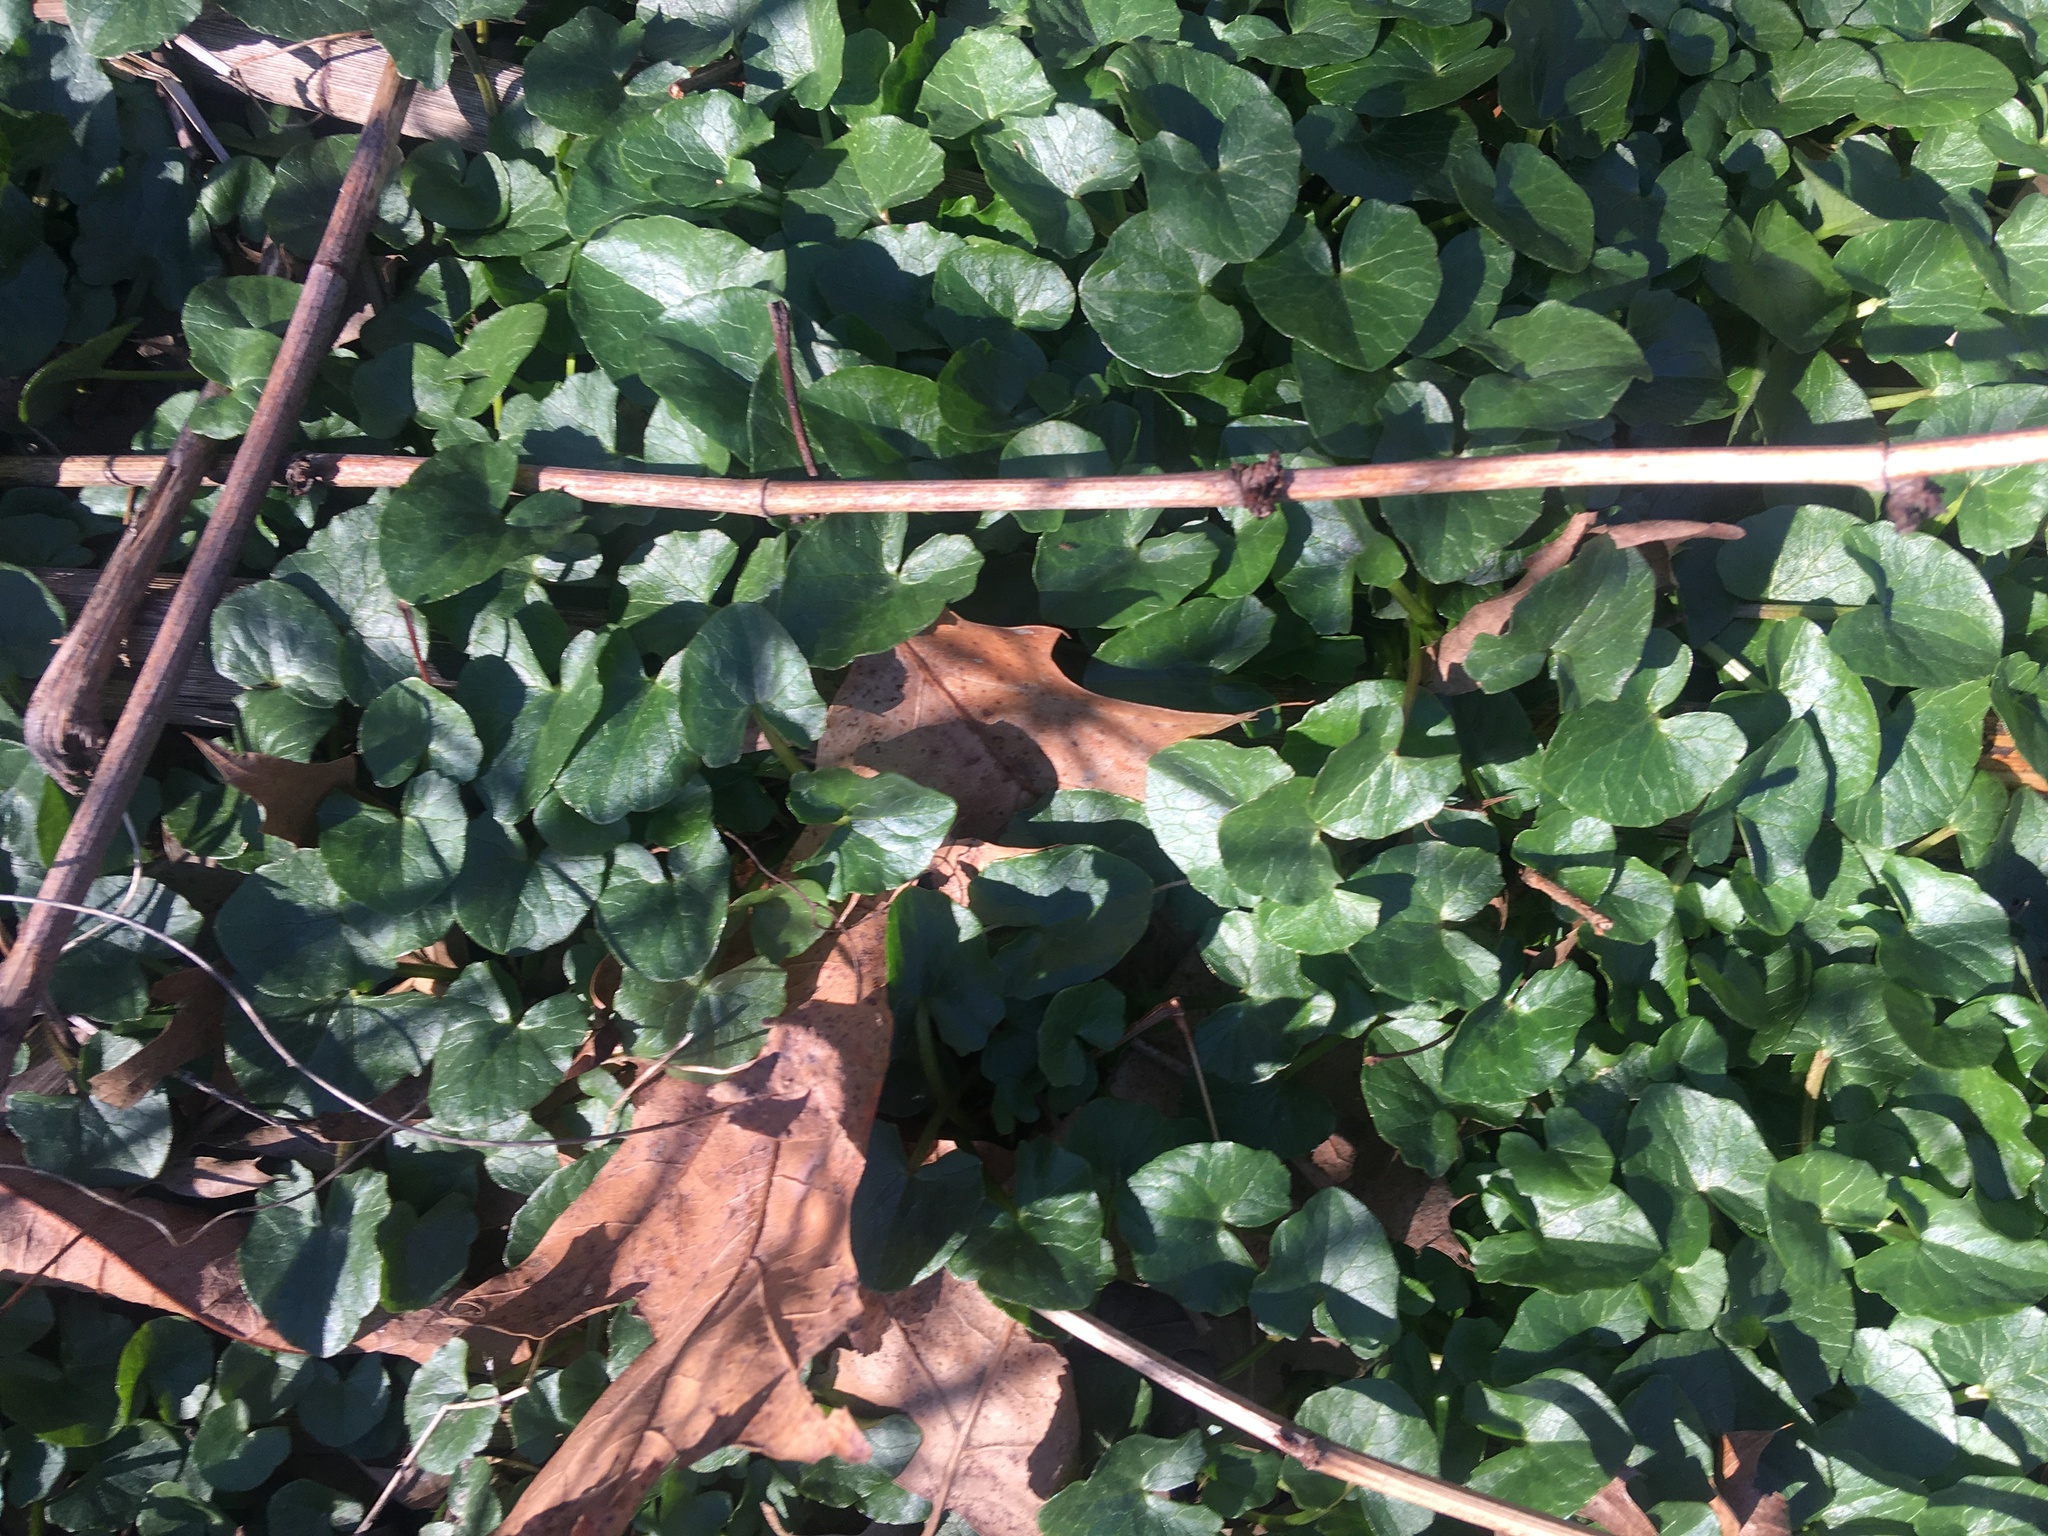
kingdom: Plantae
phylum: Tracheophyta
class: Magnoliopsida
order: Ranunculales
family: Ranunculaceae
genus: Ficaria
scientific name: Ficaria verna
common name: Lesser celandine
